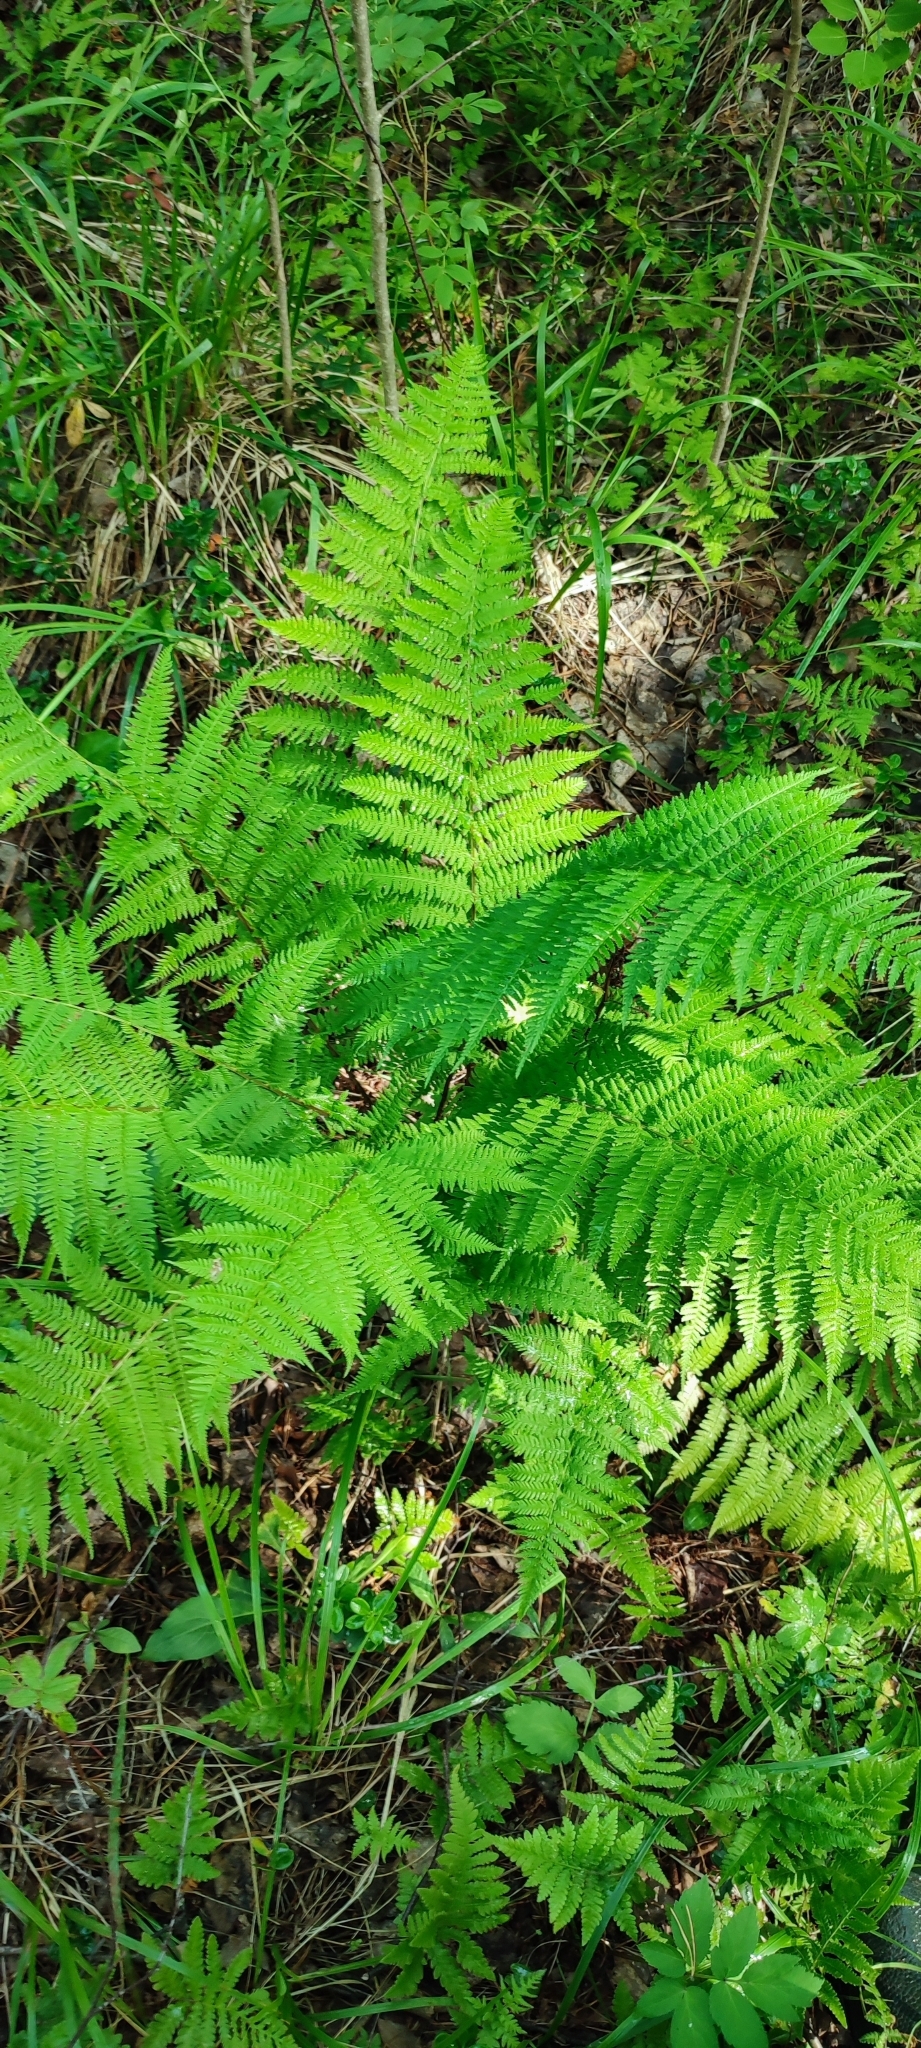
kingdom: Plantae
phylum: Tracheophyta
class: Polypodiopsida
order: Polypodiales
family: Athyriaceae
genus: Athyrium
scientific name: Athyrium filix-femina
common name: Lady fern
